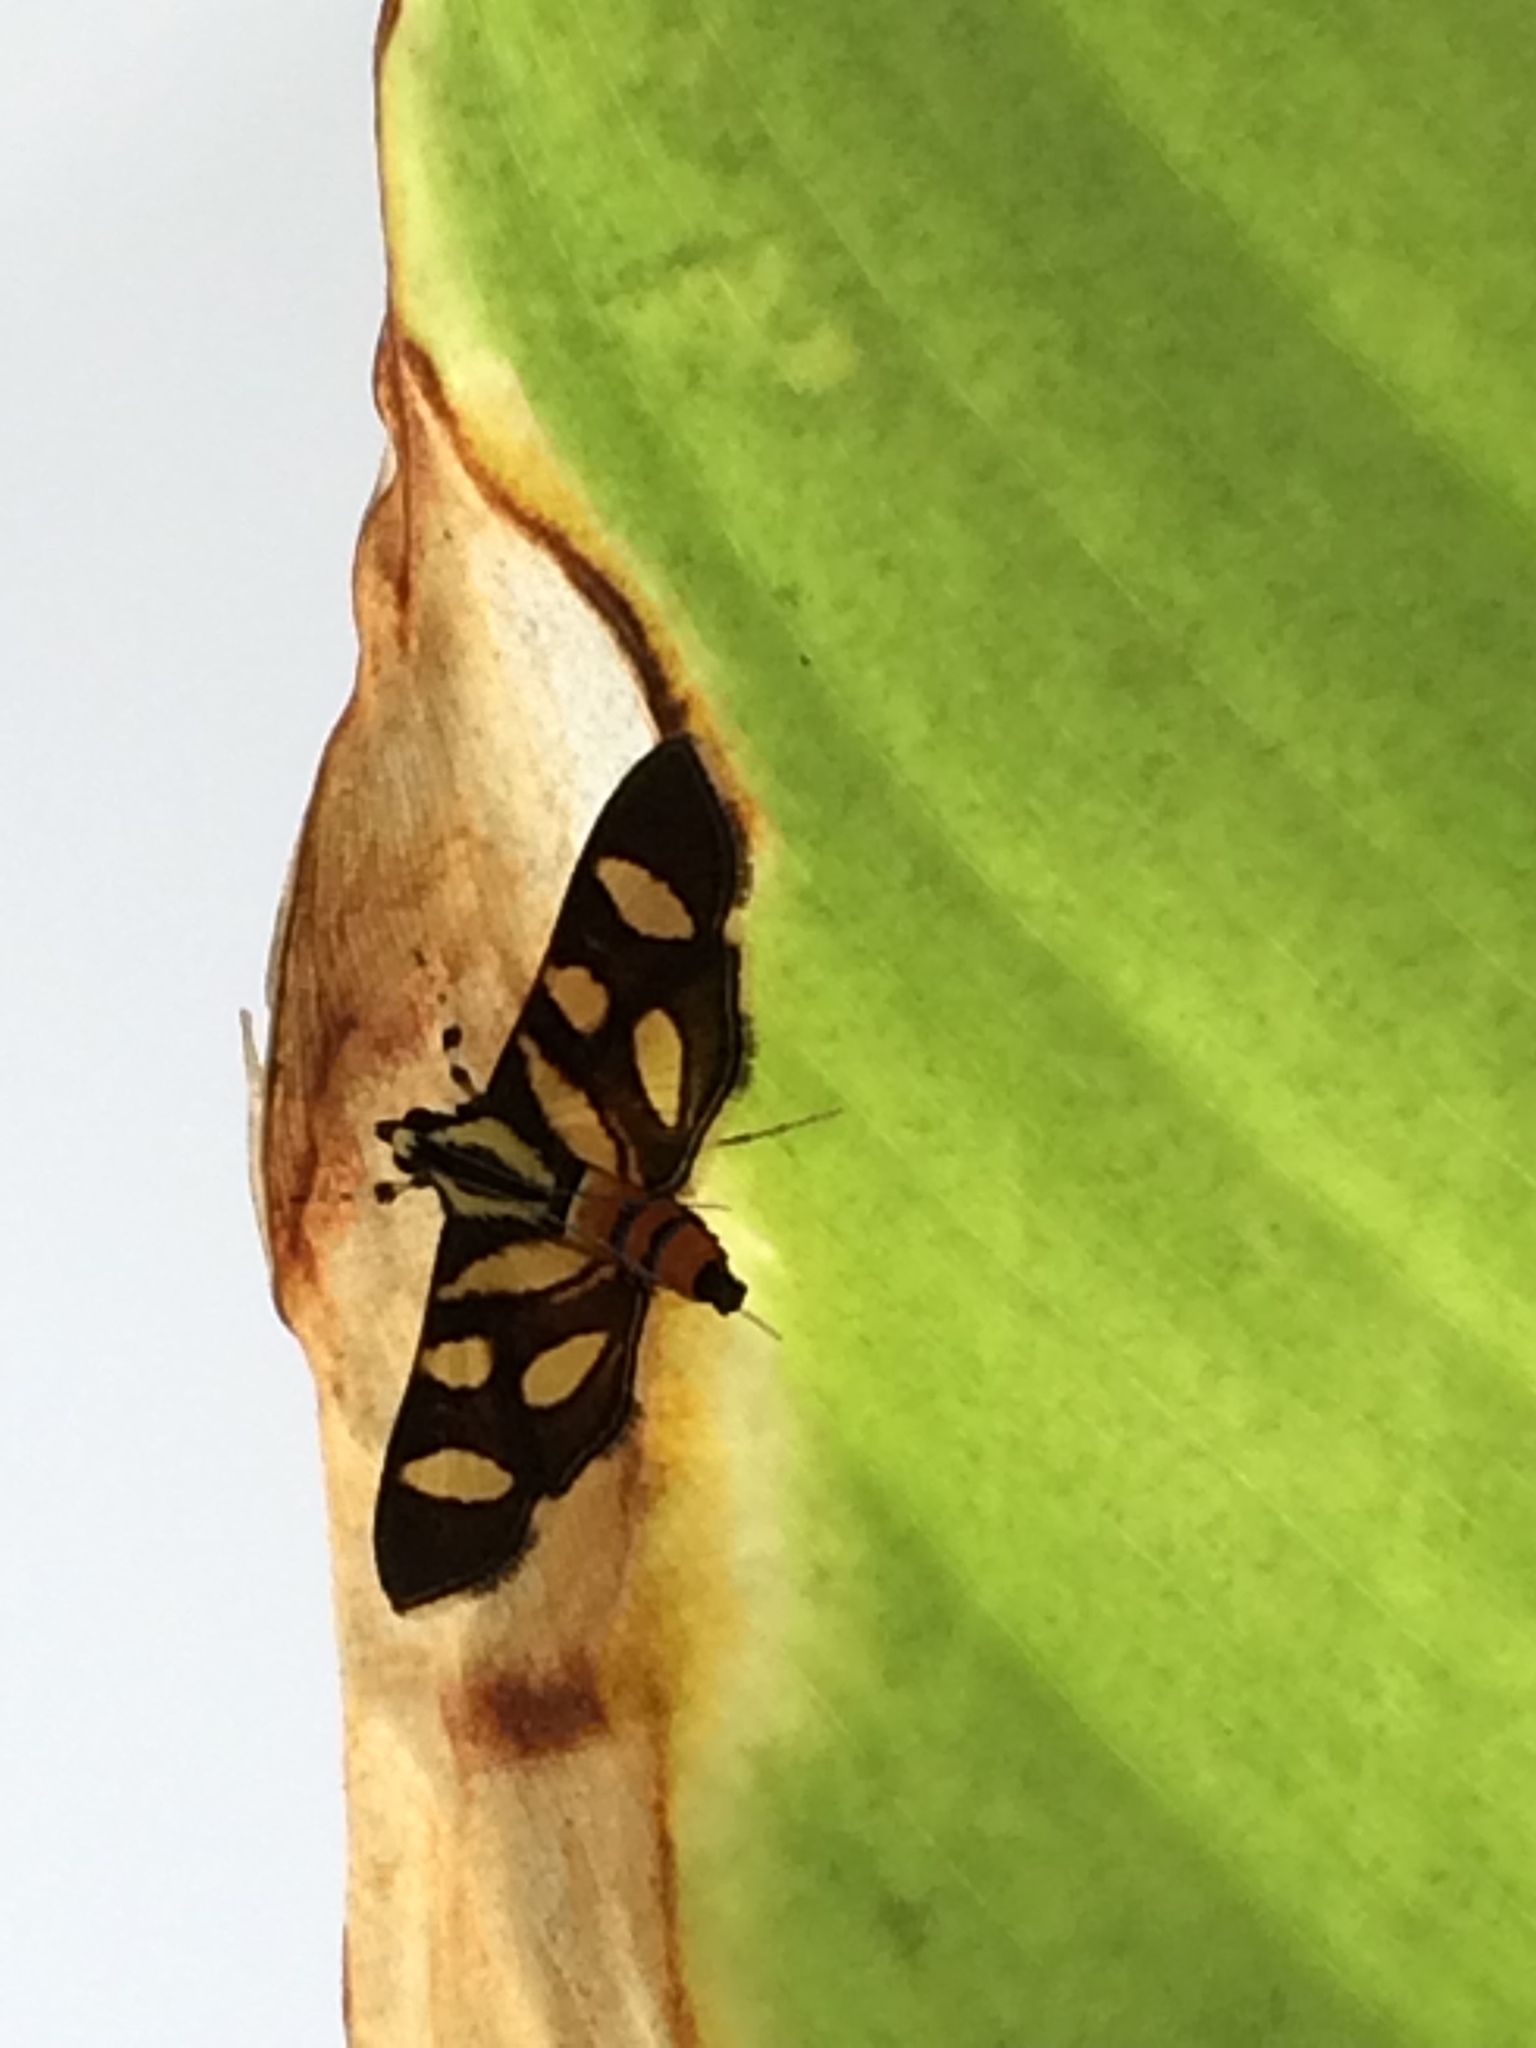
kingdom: Animalia
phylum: Arthropoda
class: Insecta
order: Lepidoptera
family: Crambidae
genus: Syngamia
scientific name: Syngamia florella
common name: Orange-spotted flower moth
